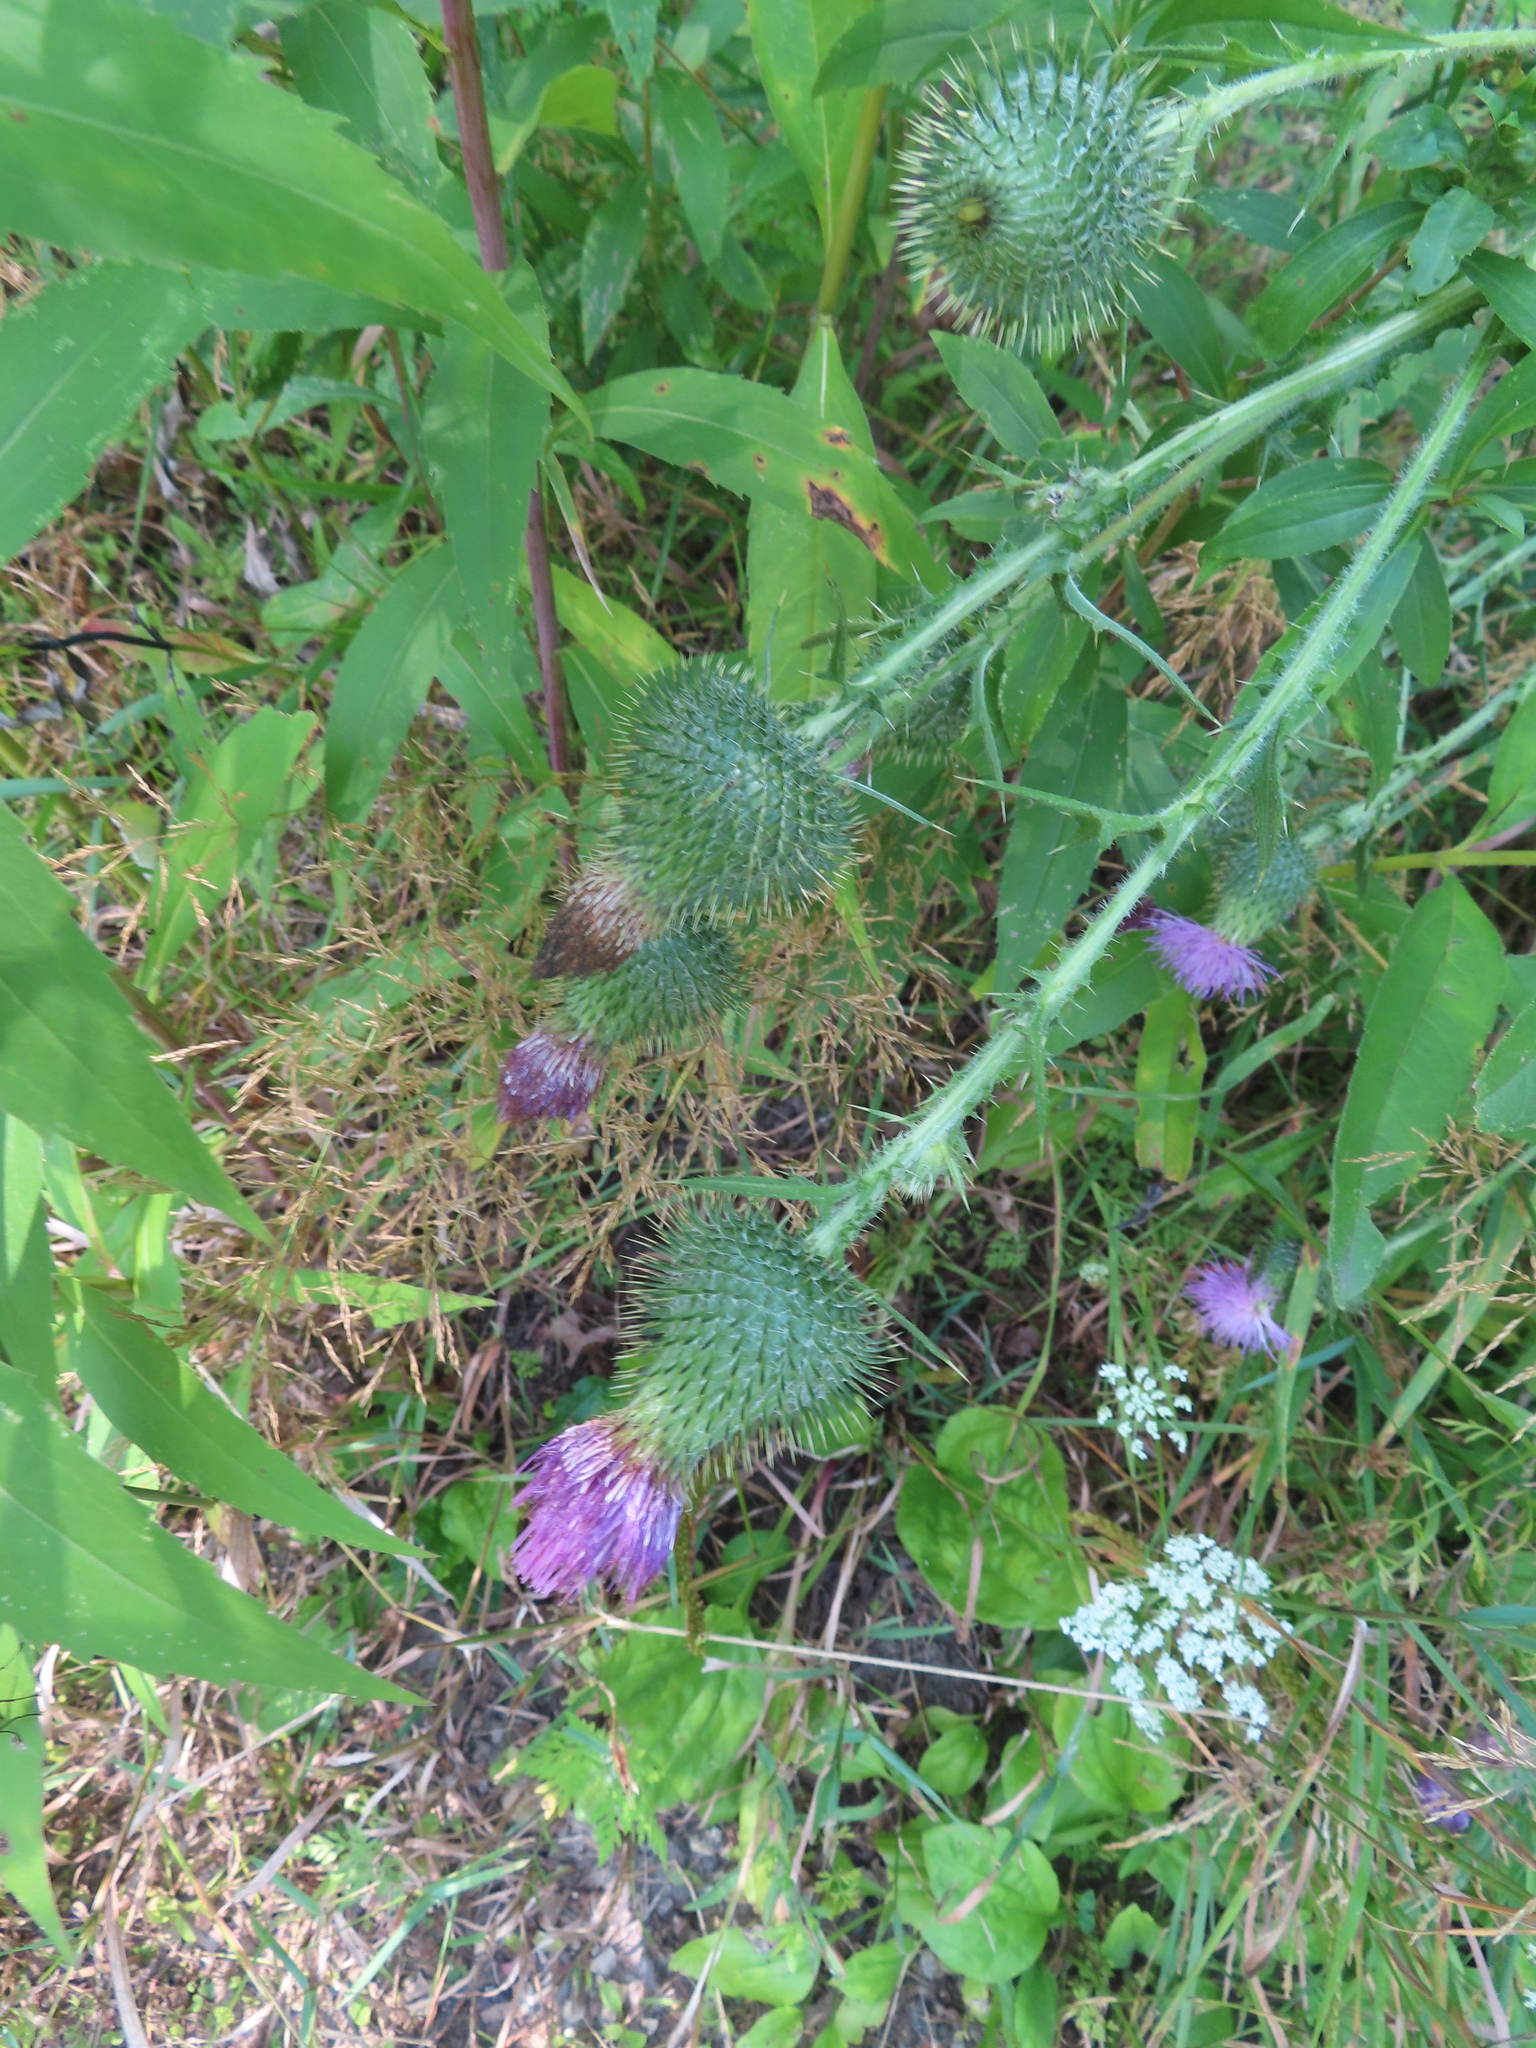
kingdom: Plantae
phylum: Tracheophyta
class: Magnoliopsida
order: Asterales
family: Asteraceae
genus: Cirsium
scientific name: Cirsium vulgare
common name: Bull thistle
